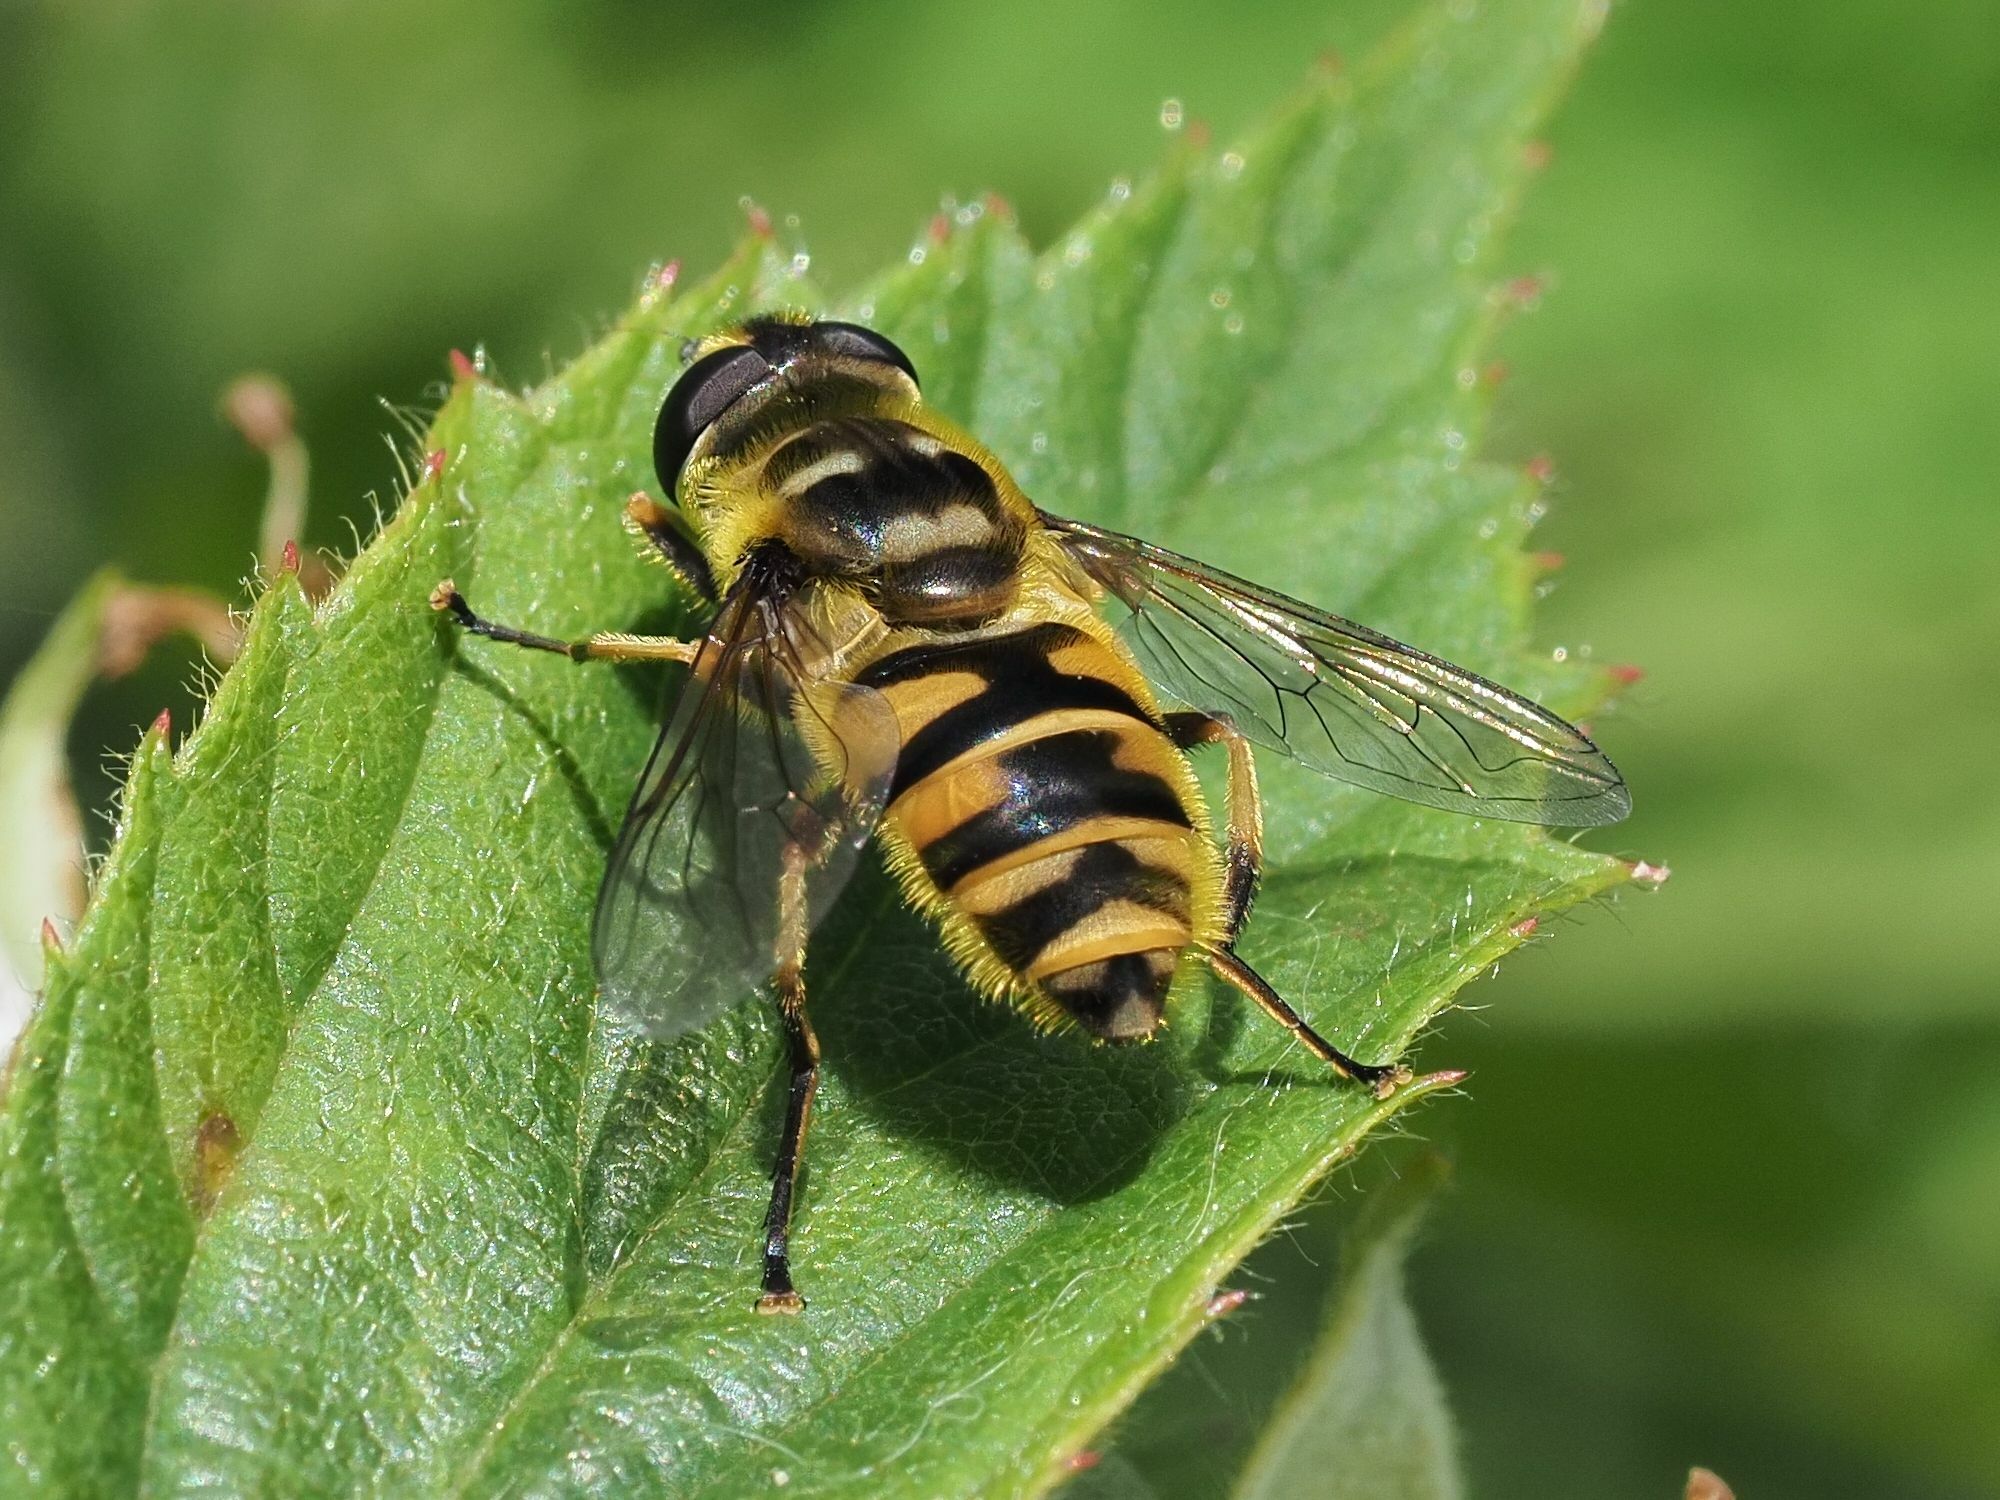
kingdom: Animalia
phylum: Arthropoda
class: Insecta
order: Diptera
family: Syrphidae
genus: Myathropa
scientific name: Myathropa florea
